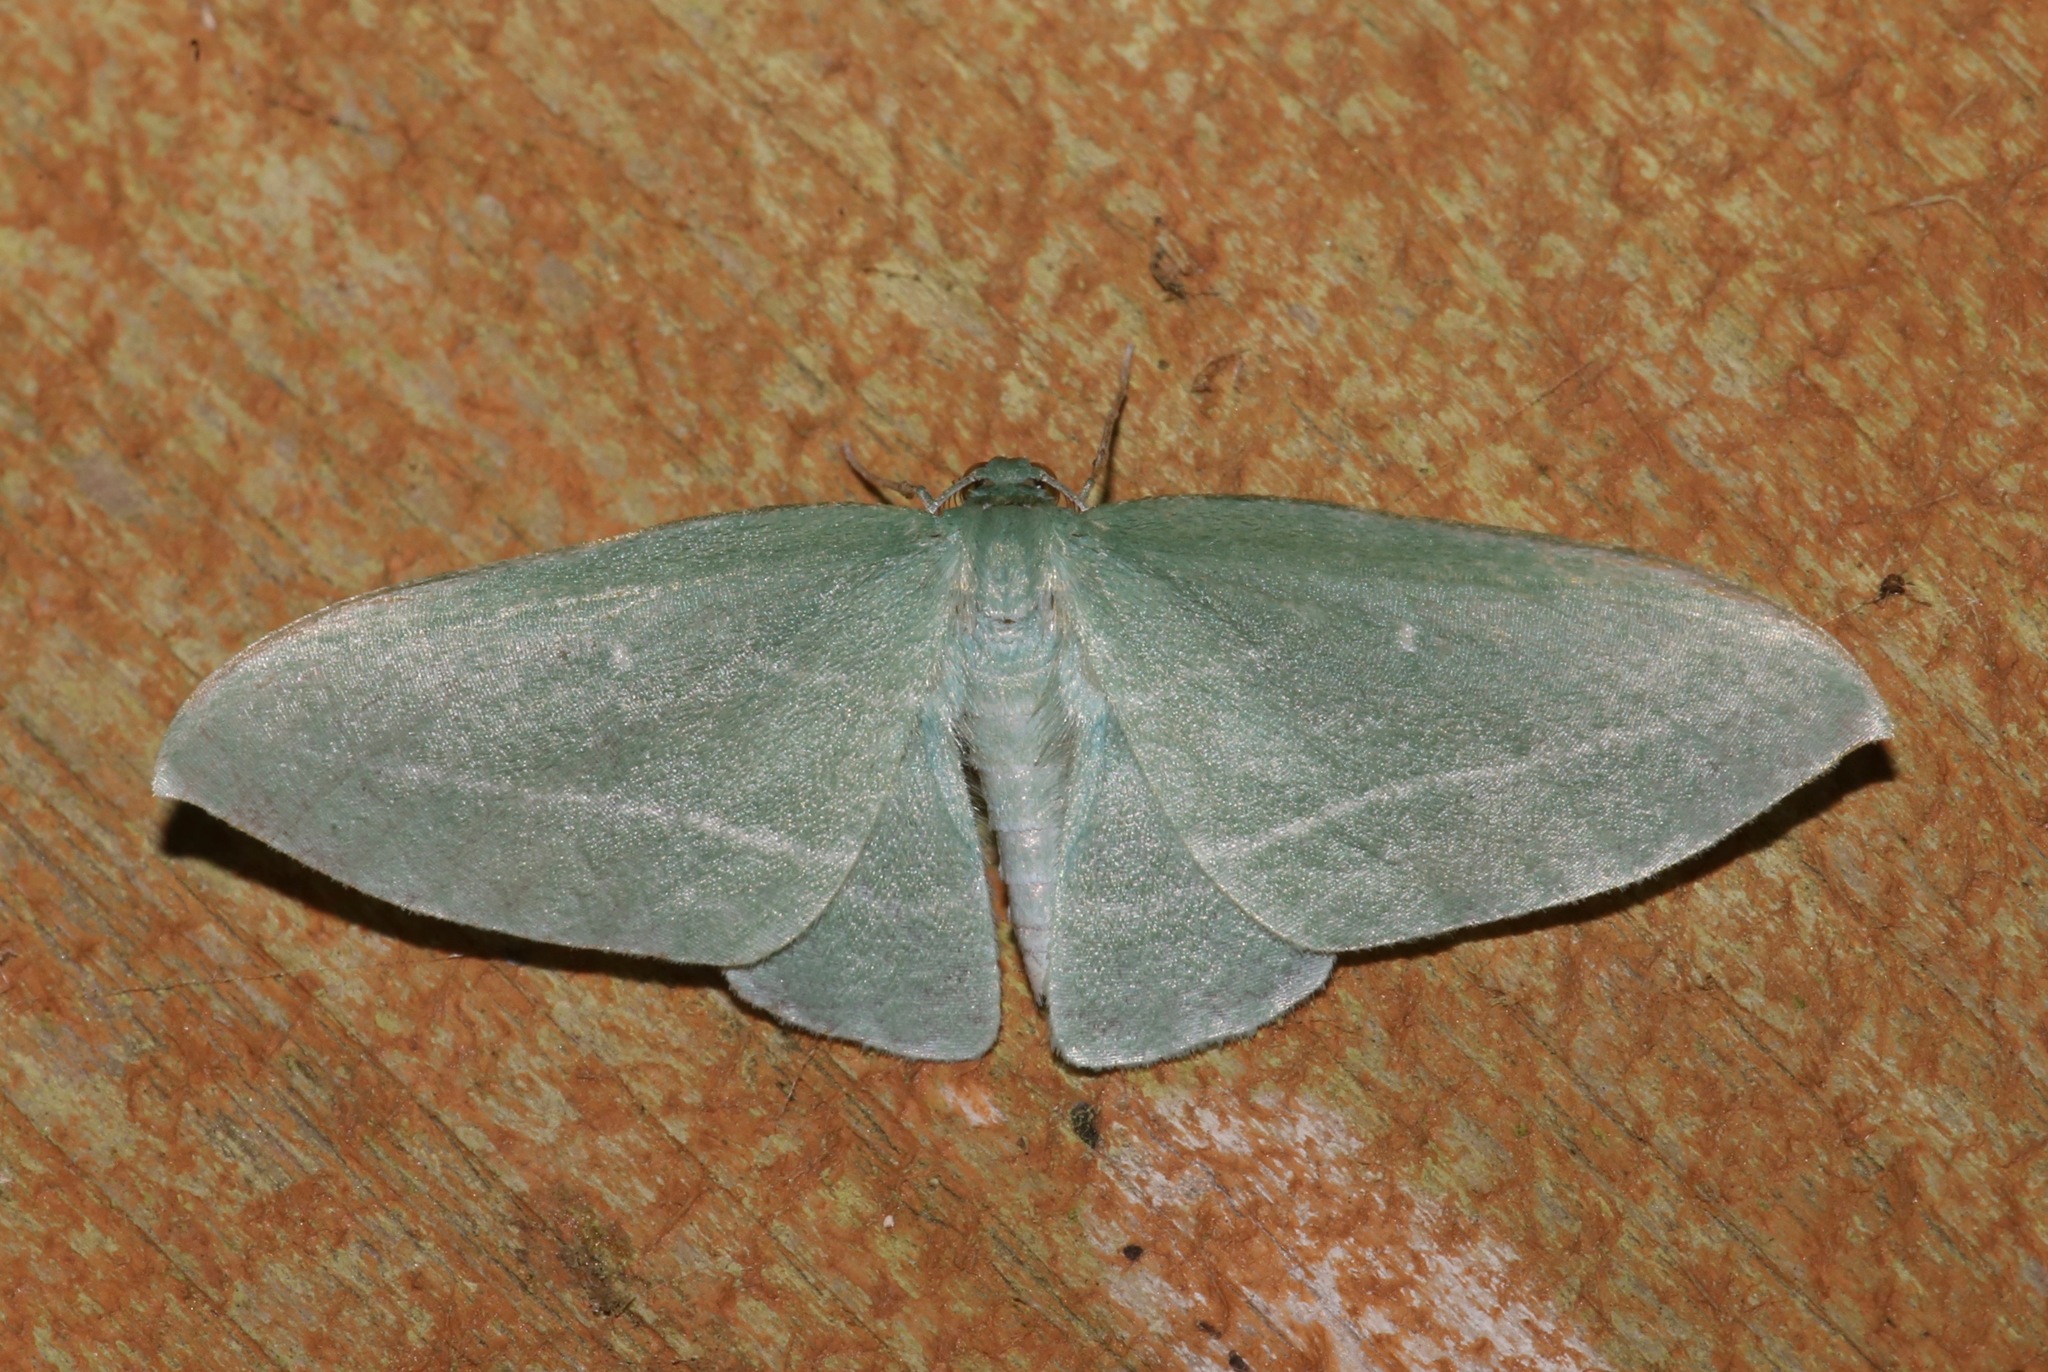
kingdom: Animalia
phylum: Arthropoda
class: Insecta
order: Lepidoptera
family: Geometridae
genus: Dyspteris
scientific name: Dyspteris abortivaria
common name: Bad-wing
